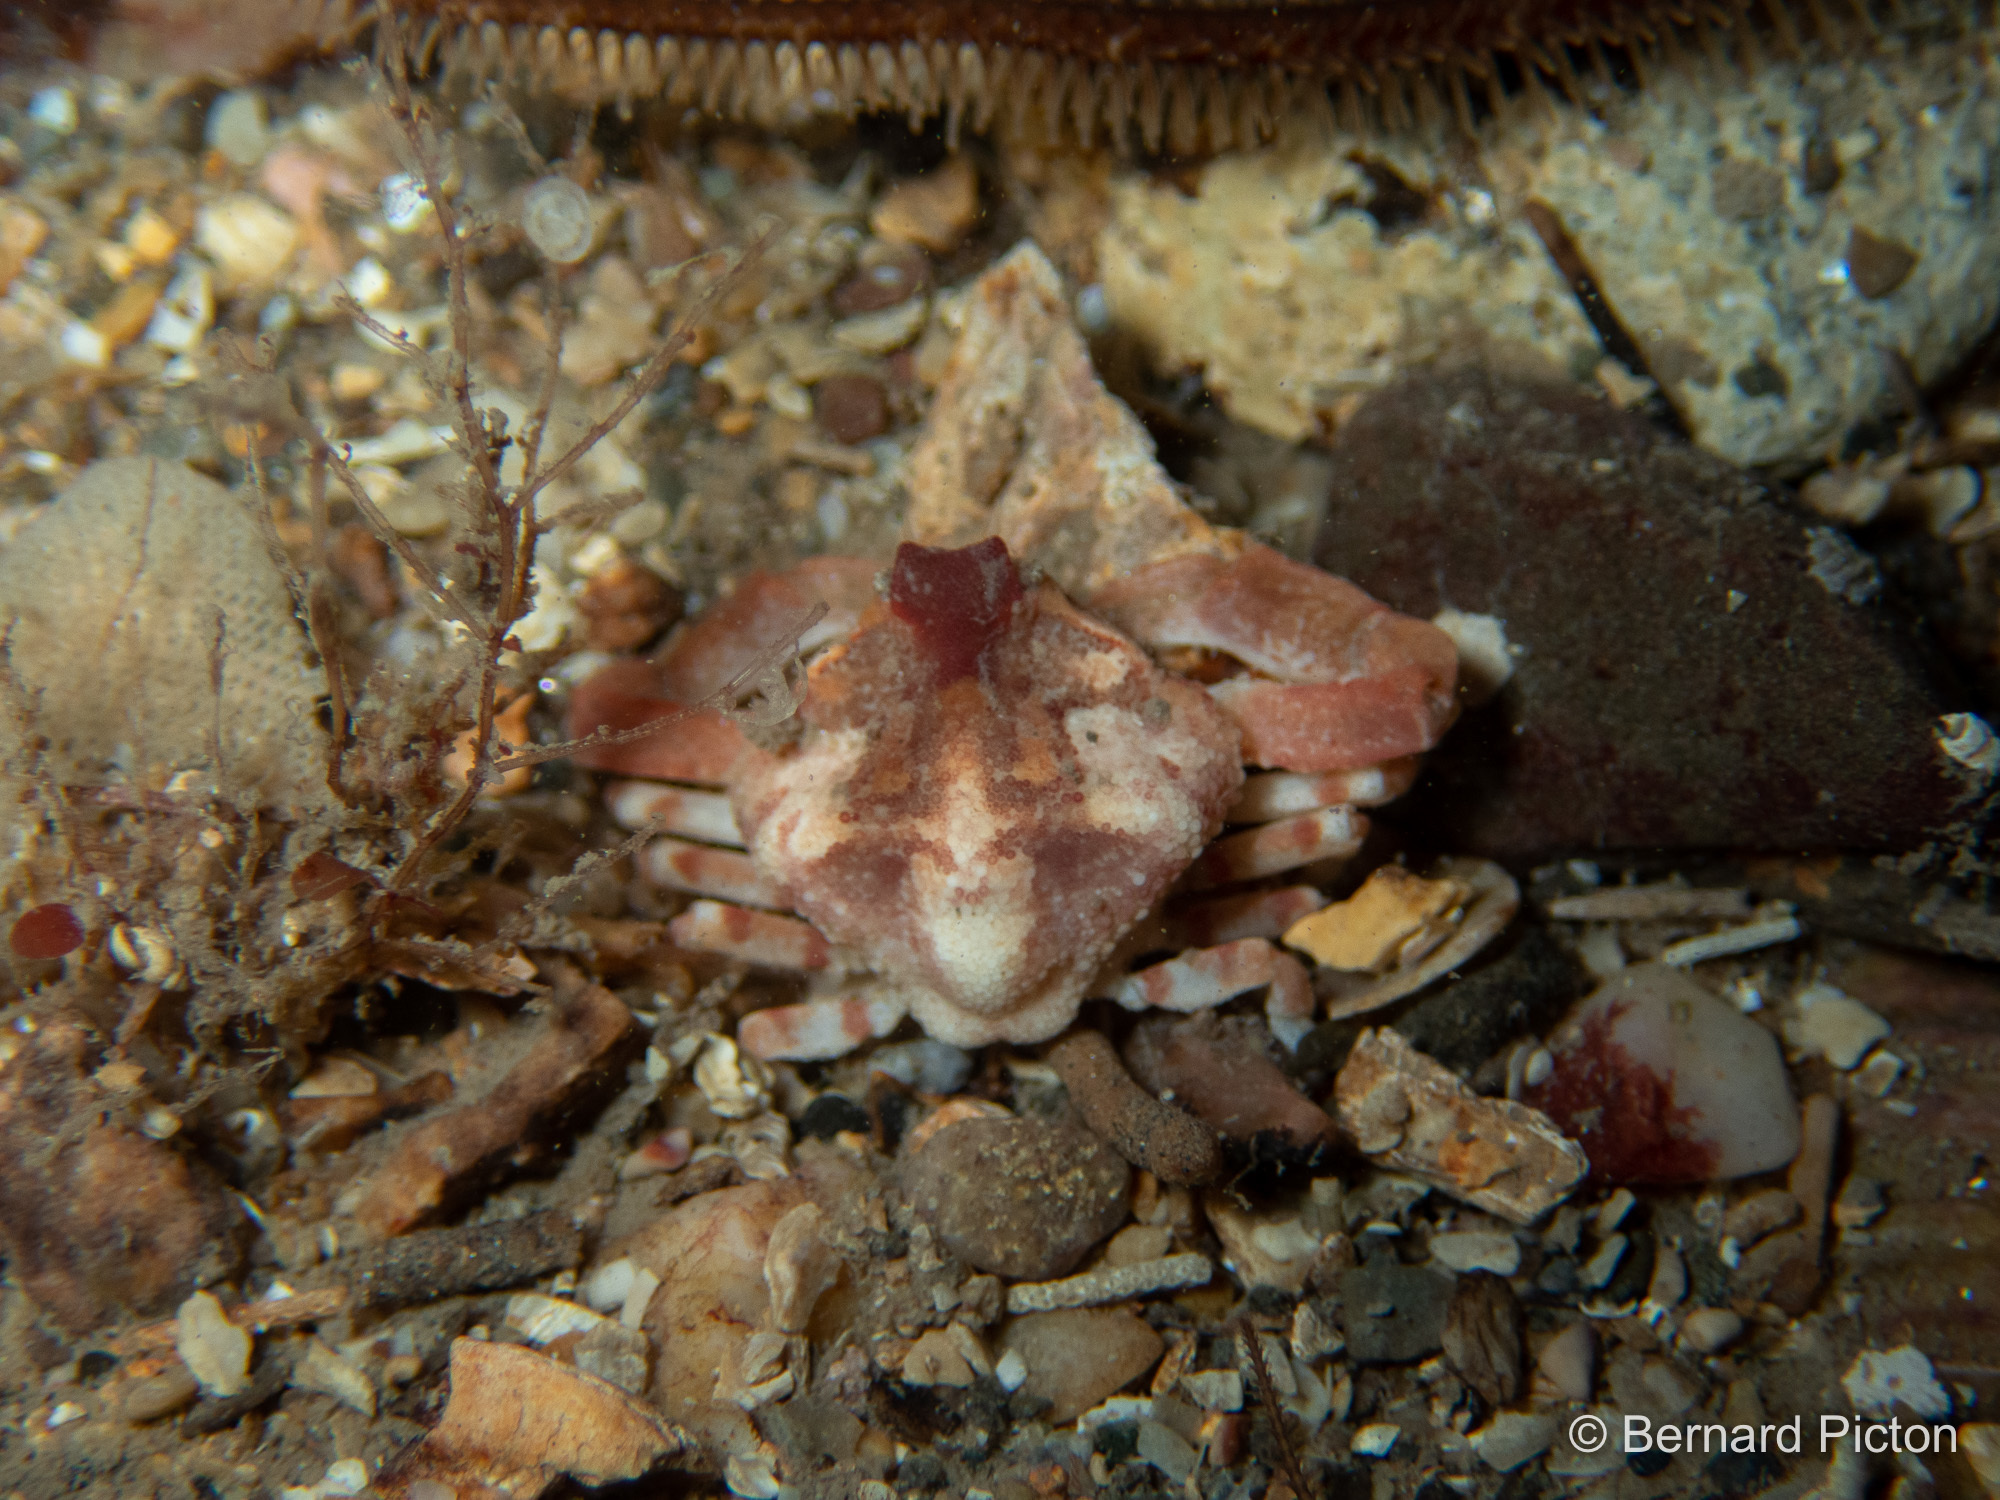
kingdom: Animalia
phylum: Arthropoda
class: Malacostraca
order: Decapoda
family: Leucosiidae
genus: Ebalia
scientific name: Ebalia tuberosa
